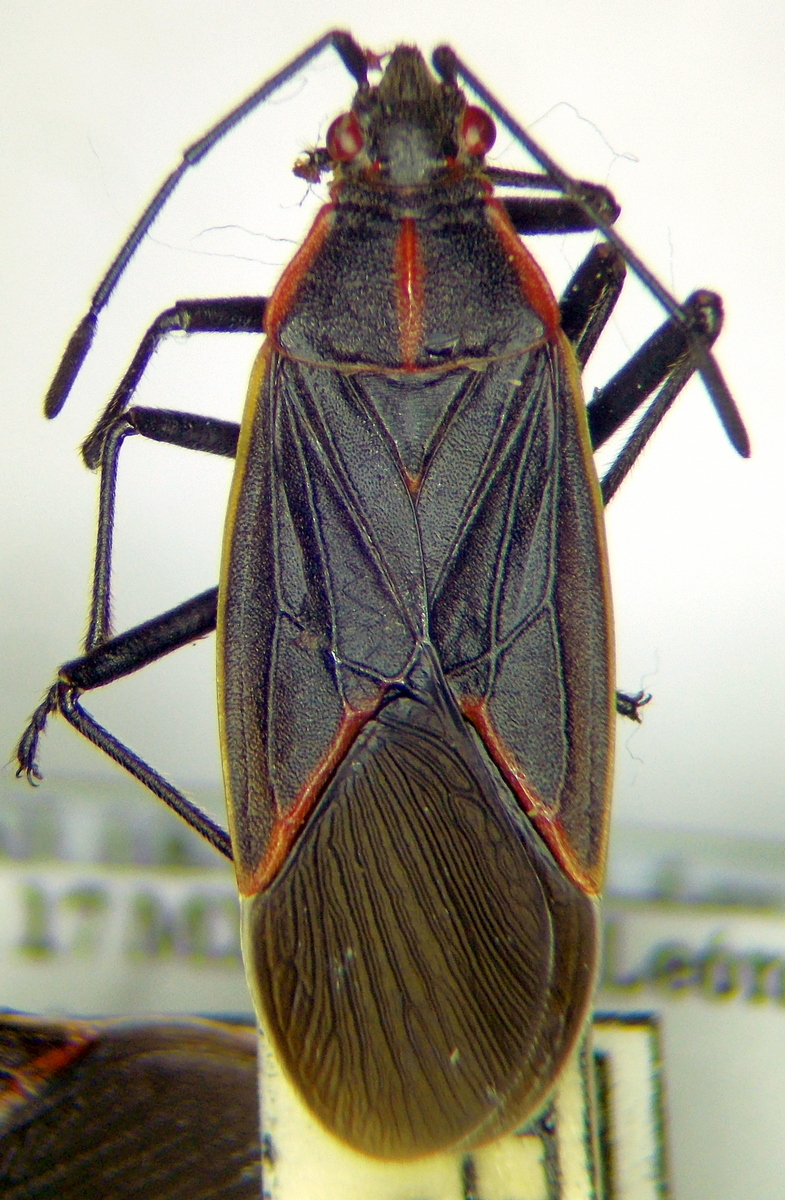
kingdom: Animalia
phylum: Arthropoda
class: Insecta
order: Hemiptera
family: Rhopalidae
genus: Boisea
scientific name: Boisea trivittata
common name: Boxelder bug
